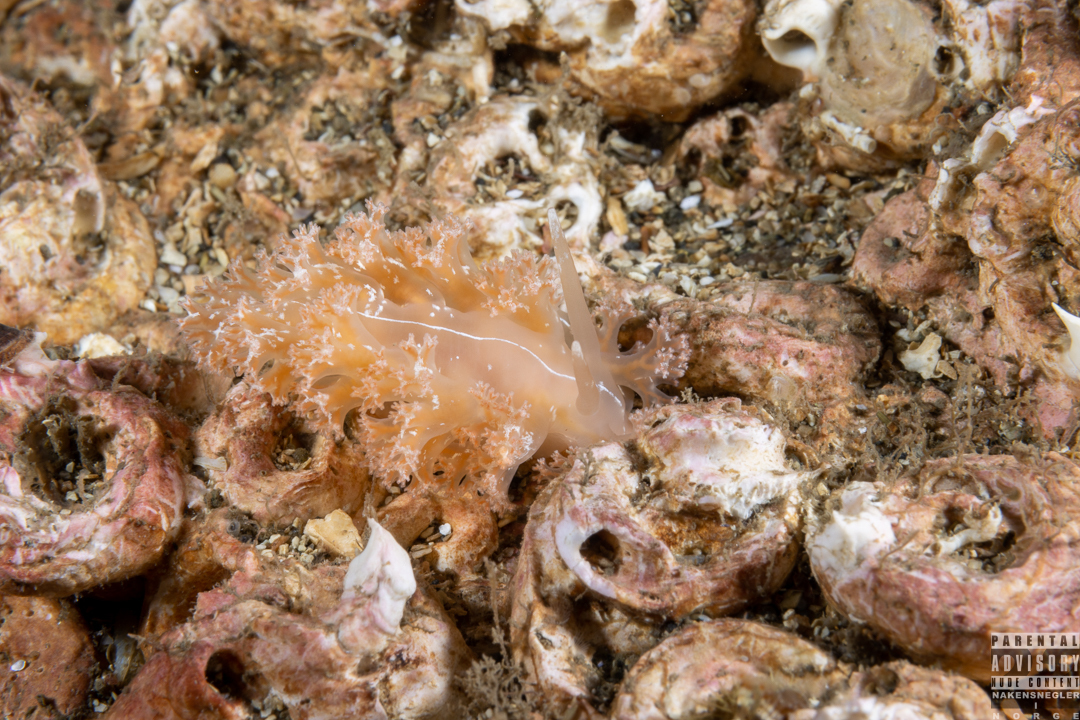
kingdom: Animalia
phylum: Mollusca
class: Gastropoda
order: Nudibranchia
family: Heroidae
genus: Hero
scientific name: Hero formosa
